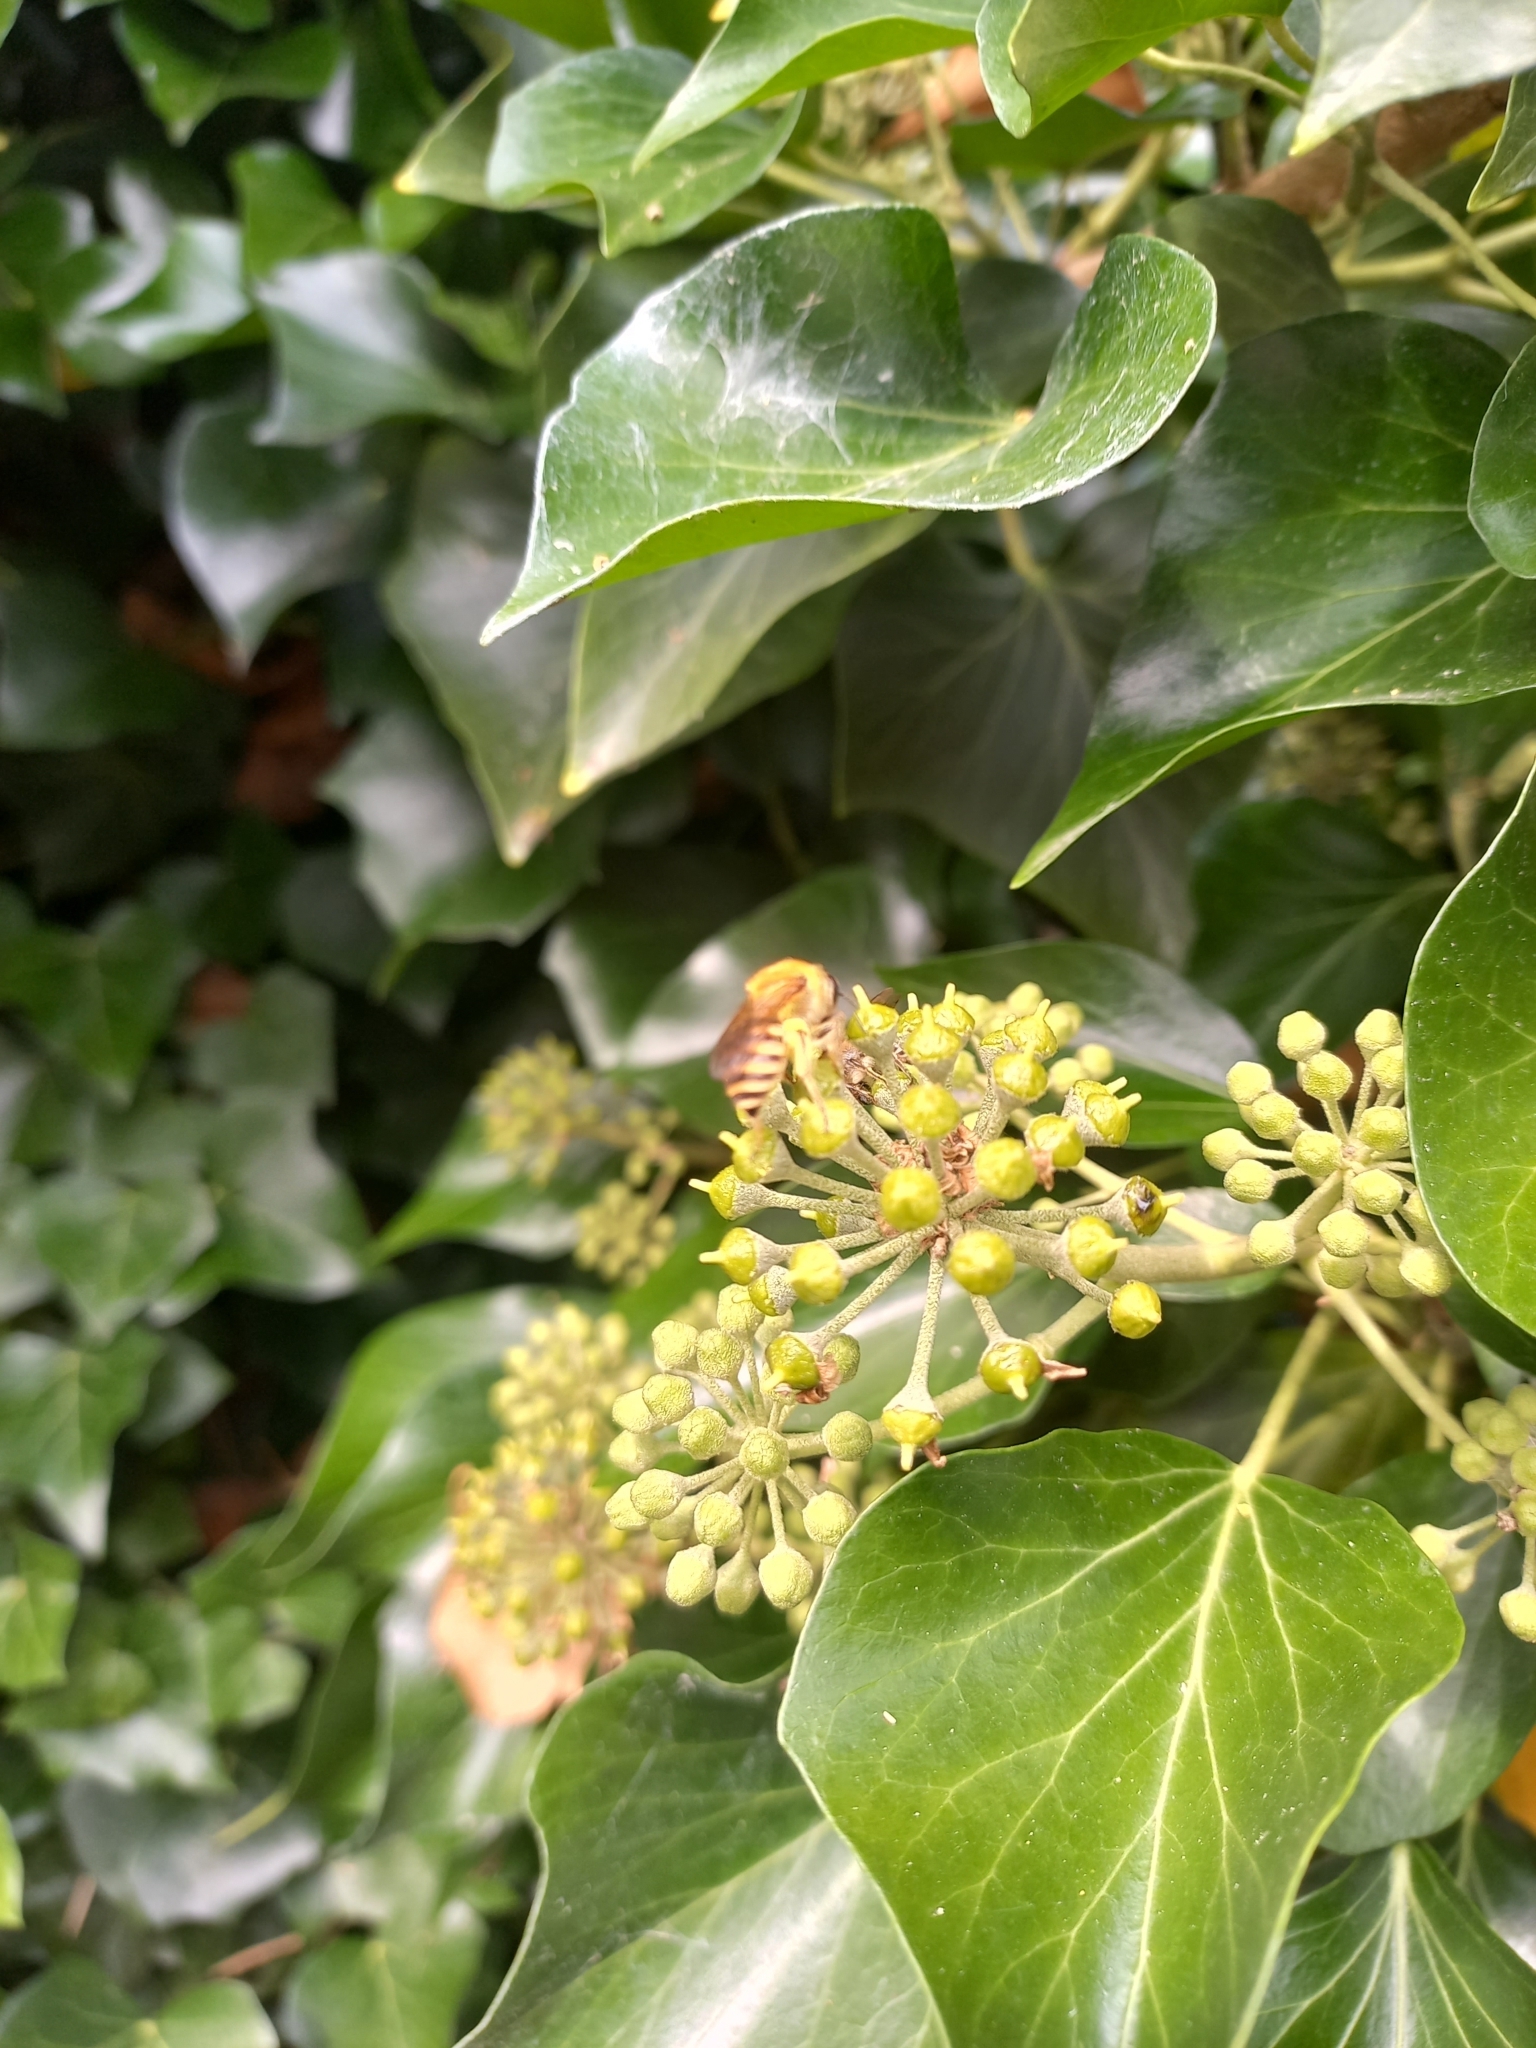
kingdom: Animalia
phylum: Arthropoda
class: Insecta
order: Hymenoptera
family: Colletidae
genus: Colletes
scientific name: Colletes hederae
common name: Ivy bee
